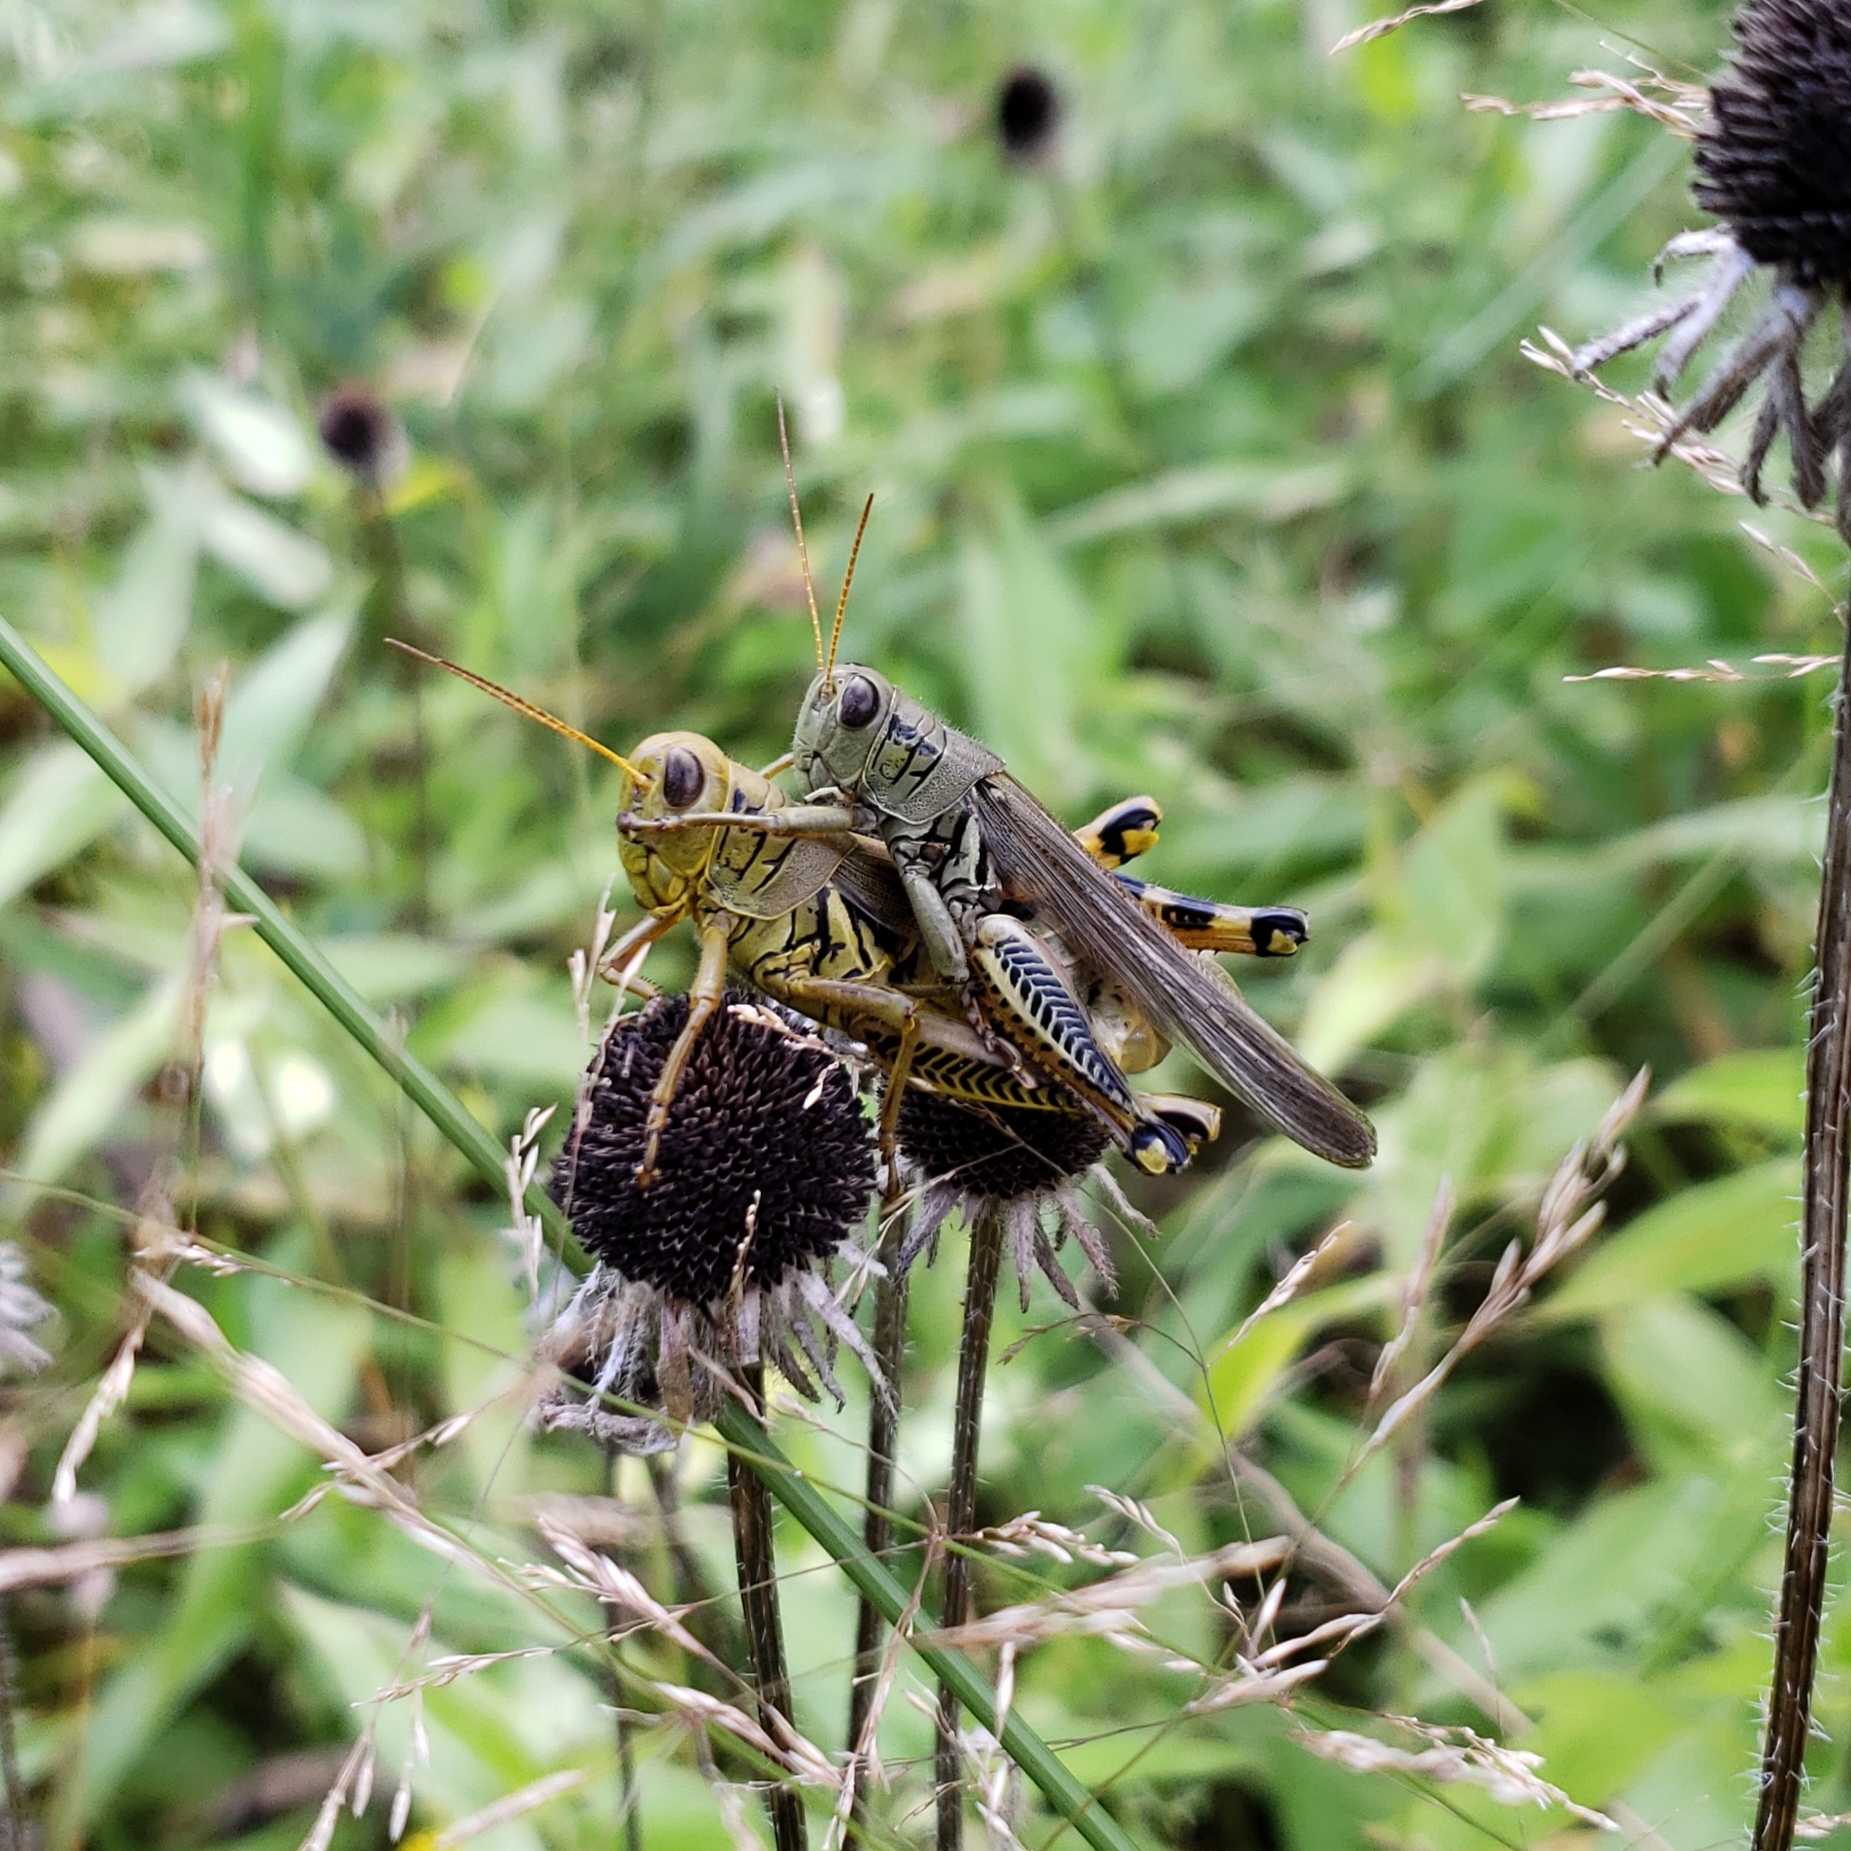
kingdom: Animalia
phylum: Arthropoda
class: Insecta
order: Orthoptera
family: Acrididae
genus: Melanoplus
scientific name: Melanoplus differentialis
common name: Differential grasshopper
